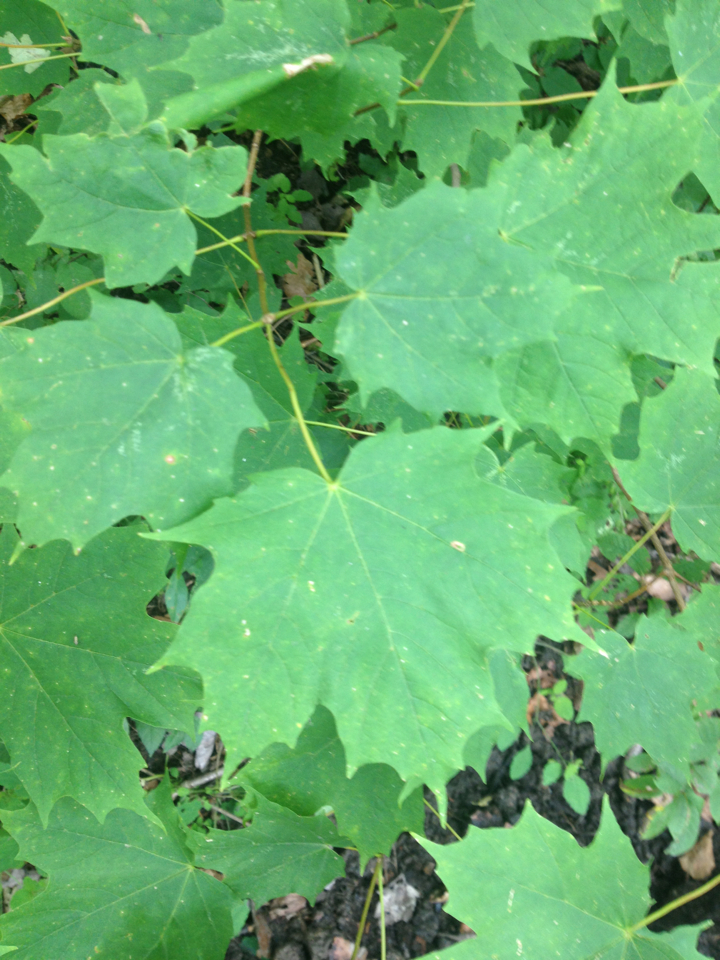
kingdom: Plantae
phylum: Tracheophyta
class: Magnoliopsida
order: Sapindales
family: Sapindaceae
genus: Acer
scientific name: Acer saccharum
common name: Sugar maple
